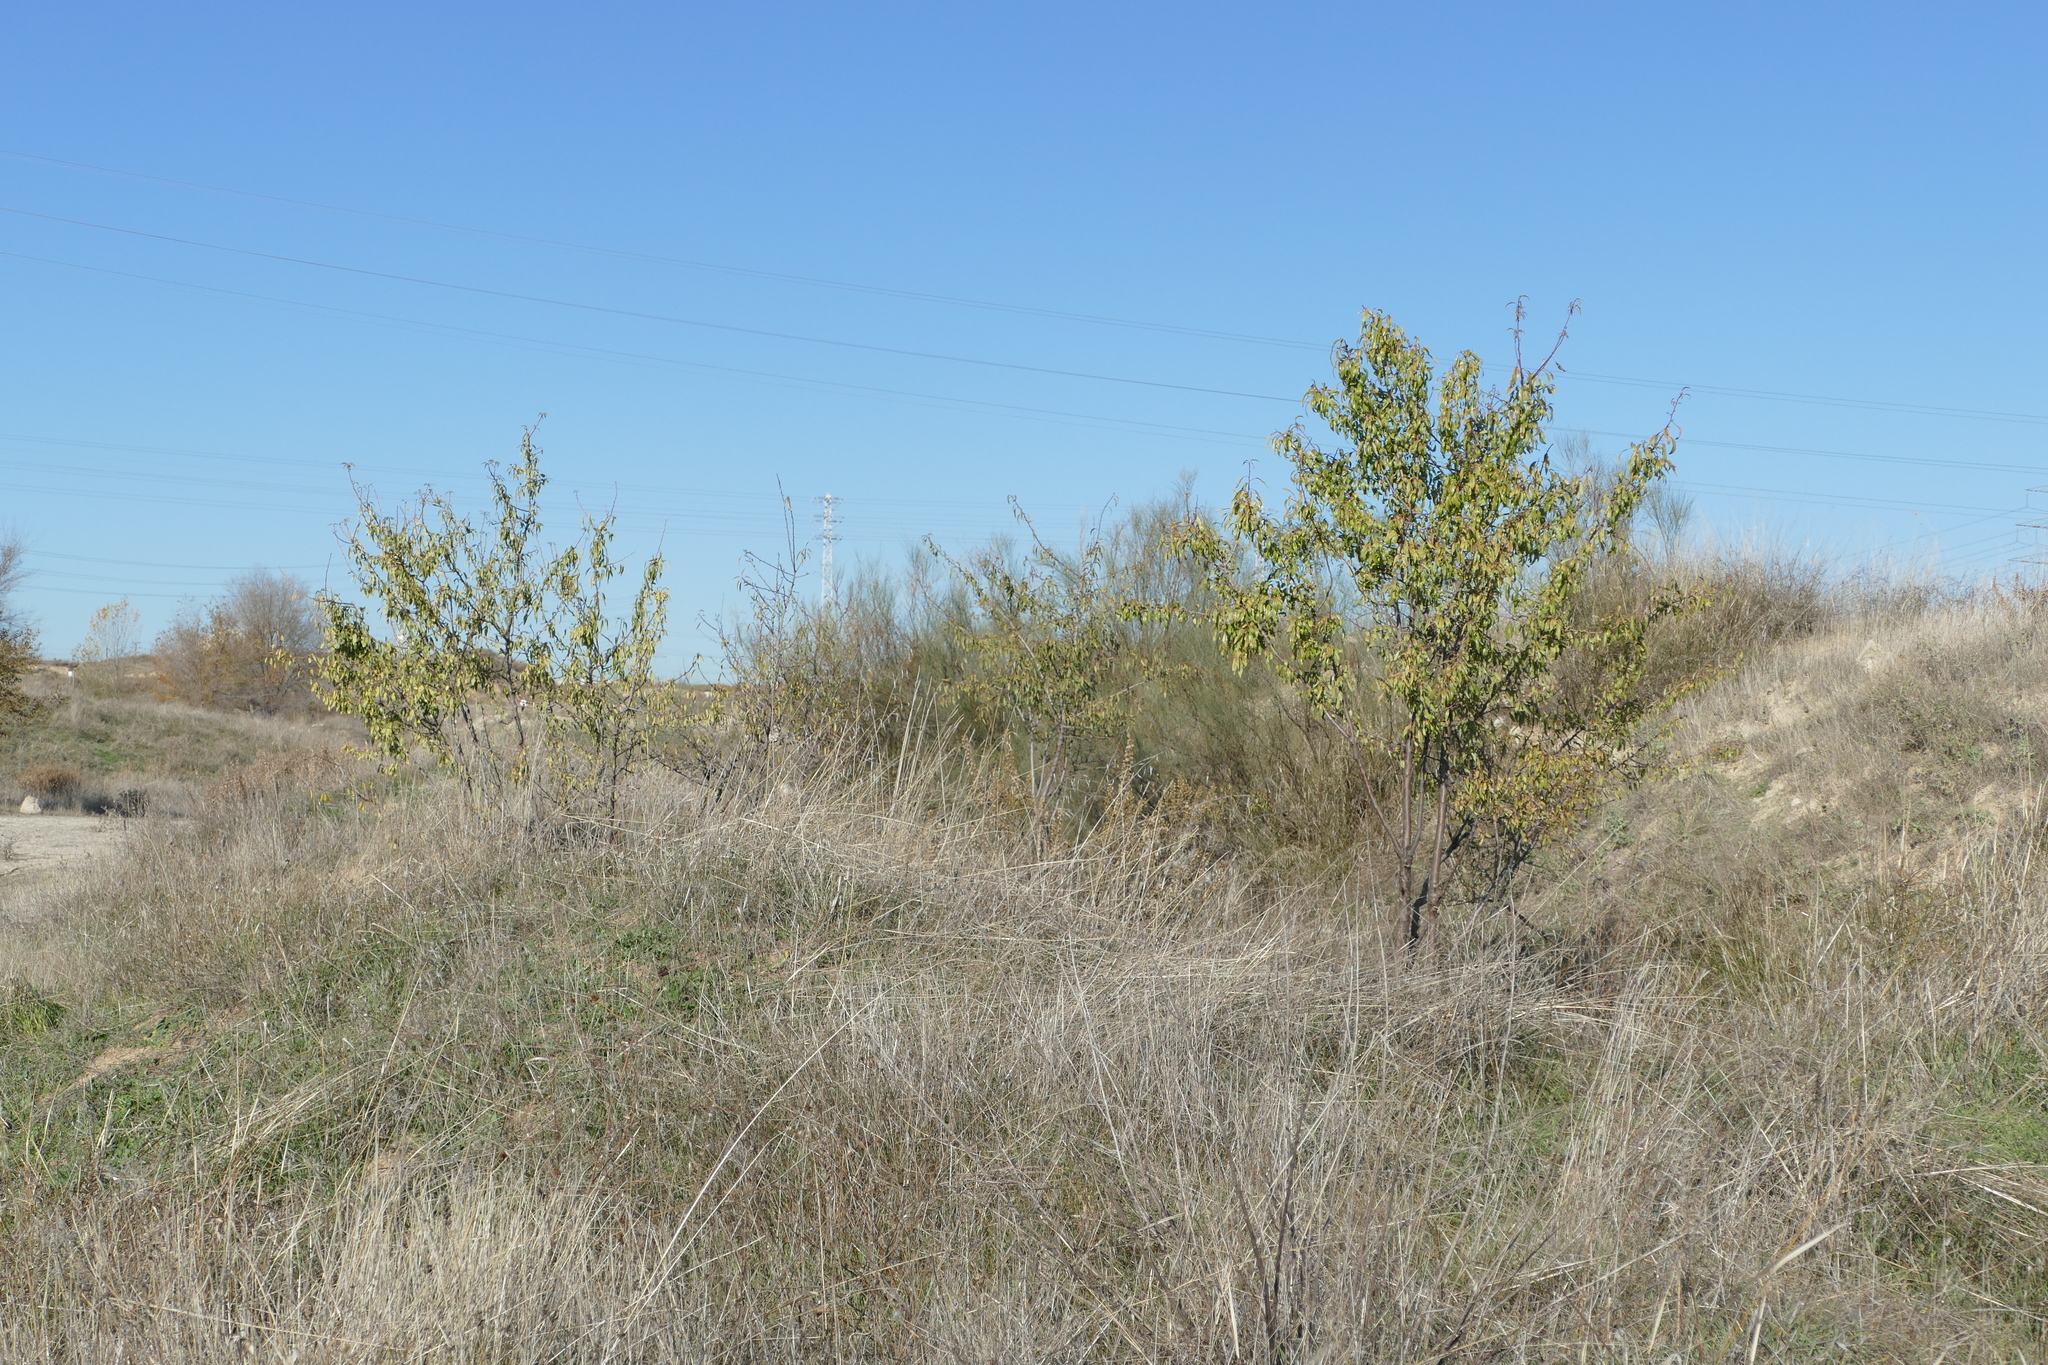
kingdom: Plantae
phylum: Tracheophyta
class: Magnoliopsida
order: Rosales
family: Rosaceae
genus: Prunus
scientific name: Prunus amygdalus
